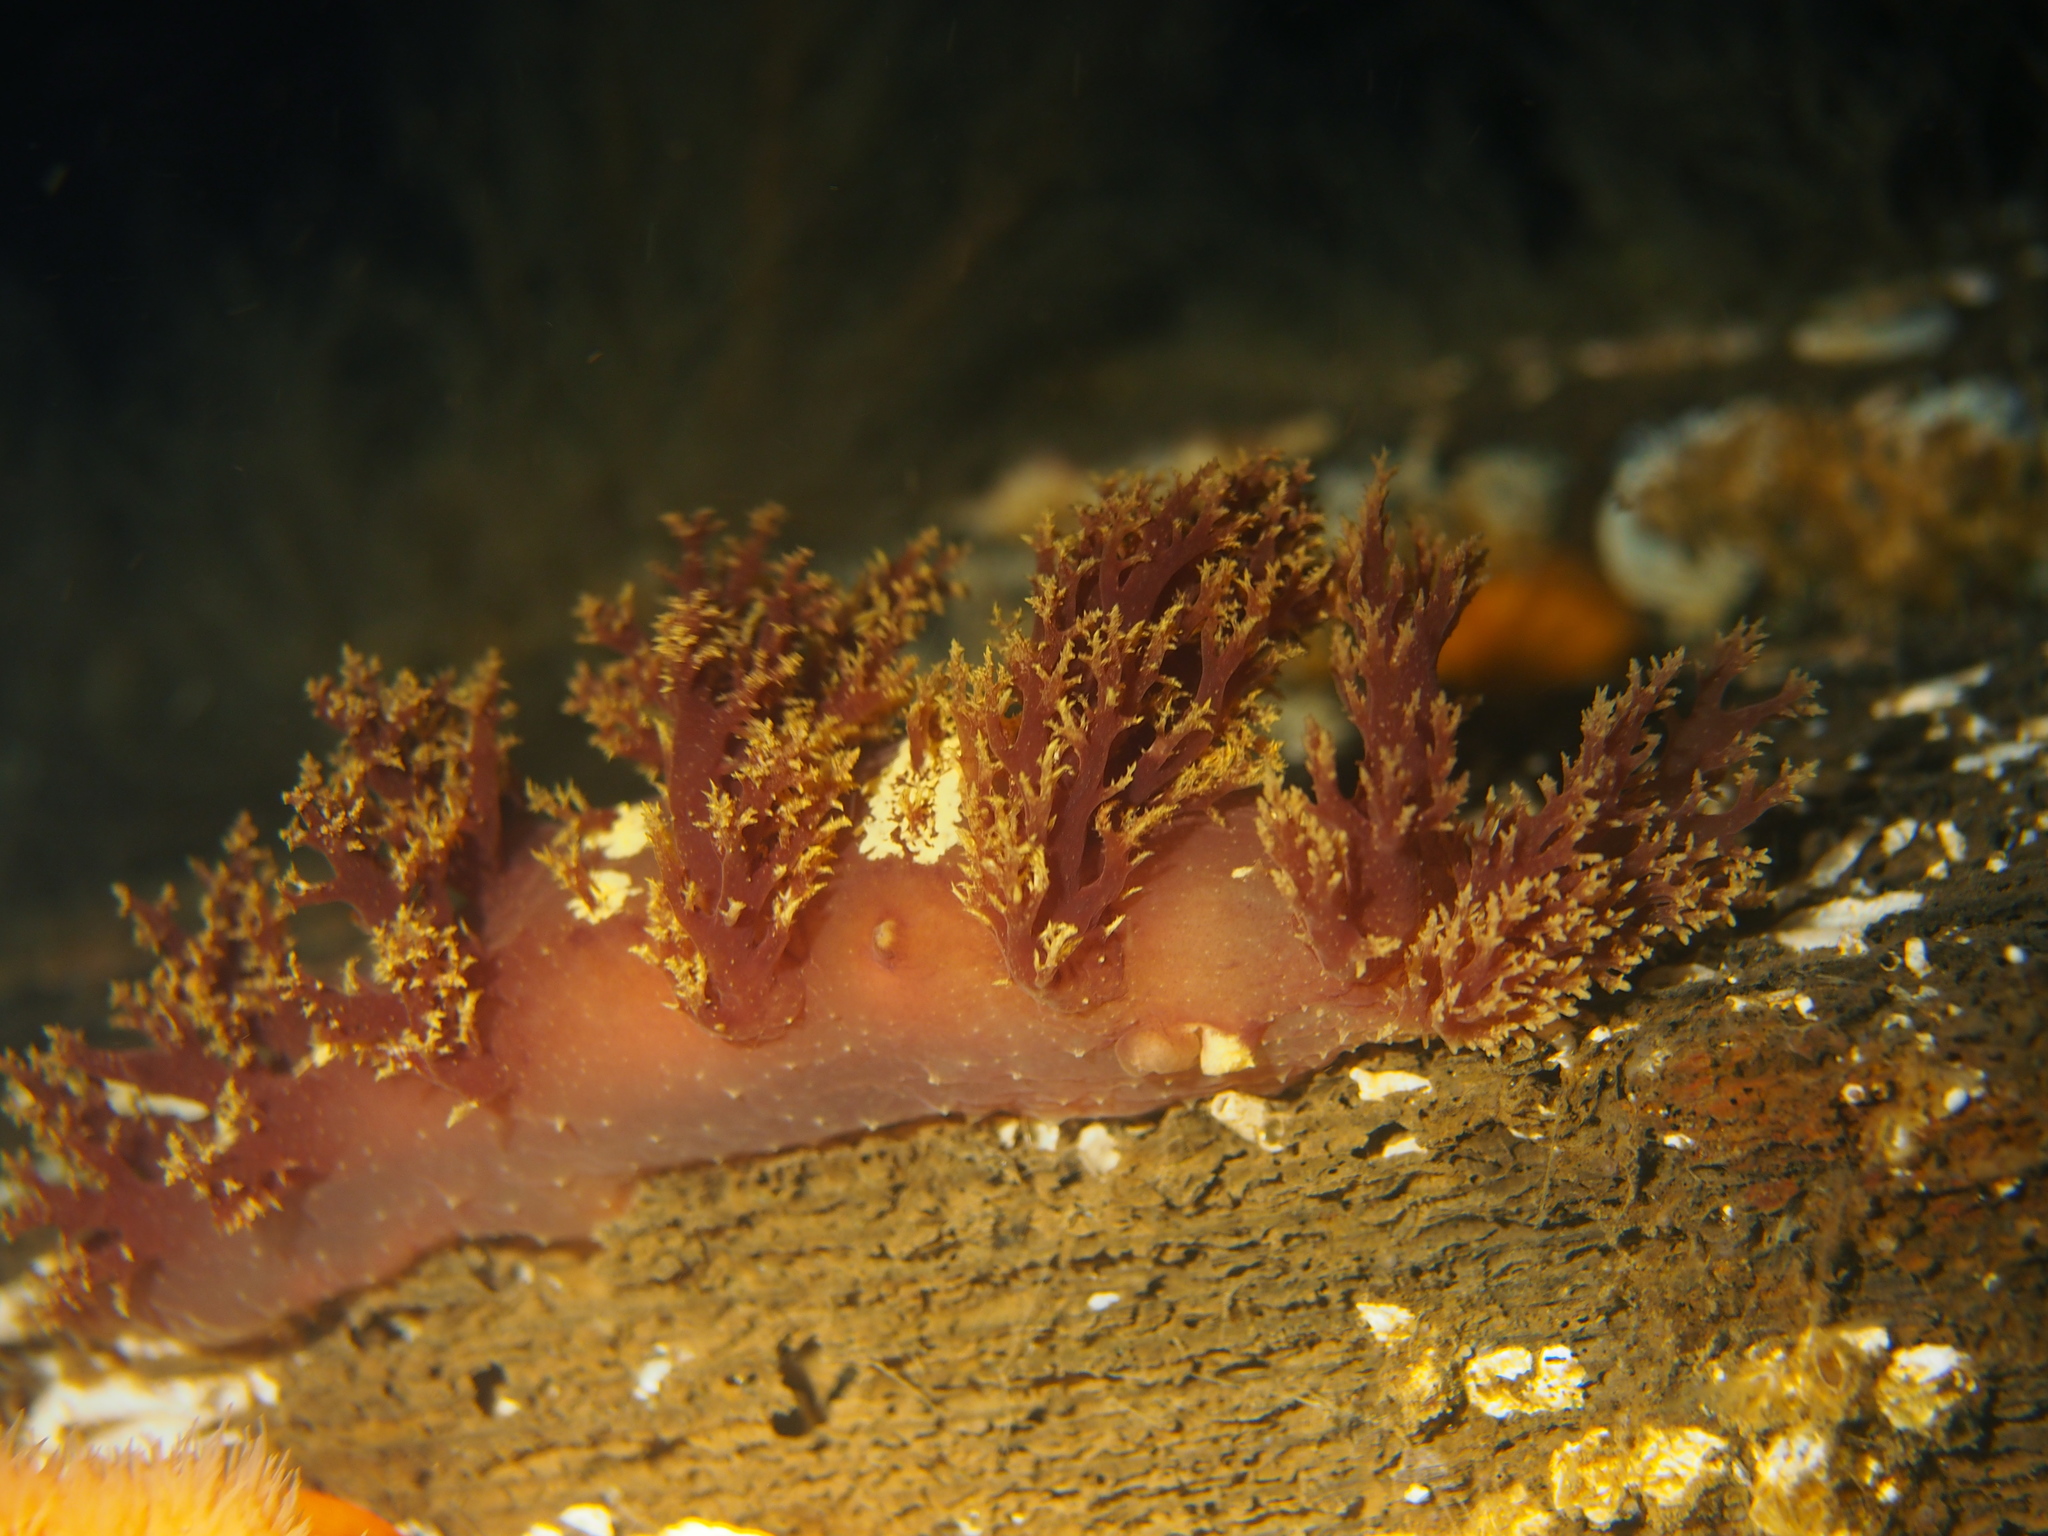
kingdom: Animalia
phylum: Mollusca
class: Gastropoda
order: Nudibranchia
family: Dendronotidae
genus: Dendronotus
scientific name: Dendronotus lacteus
